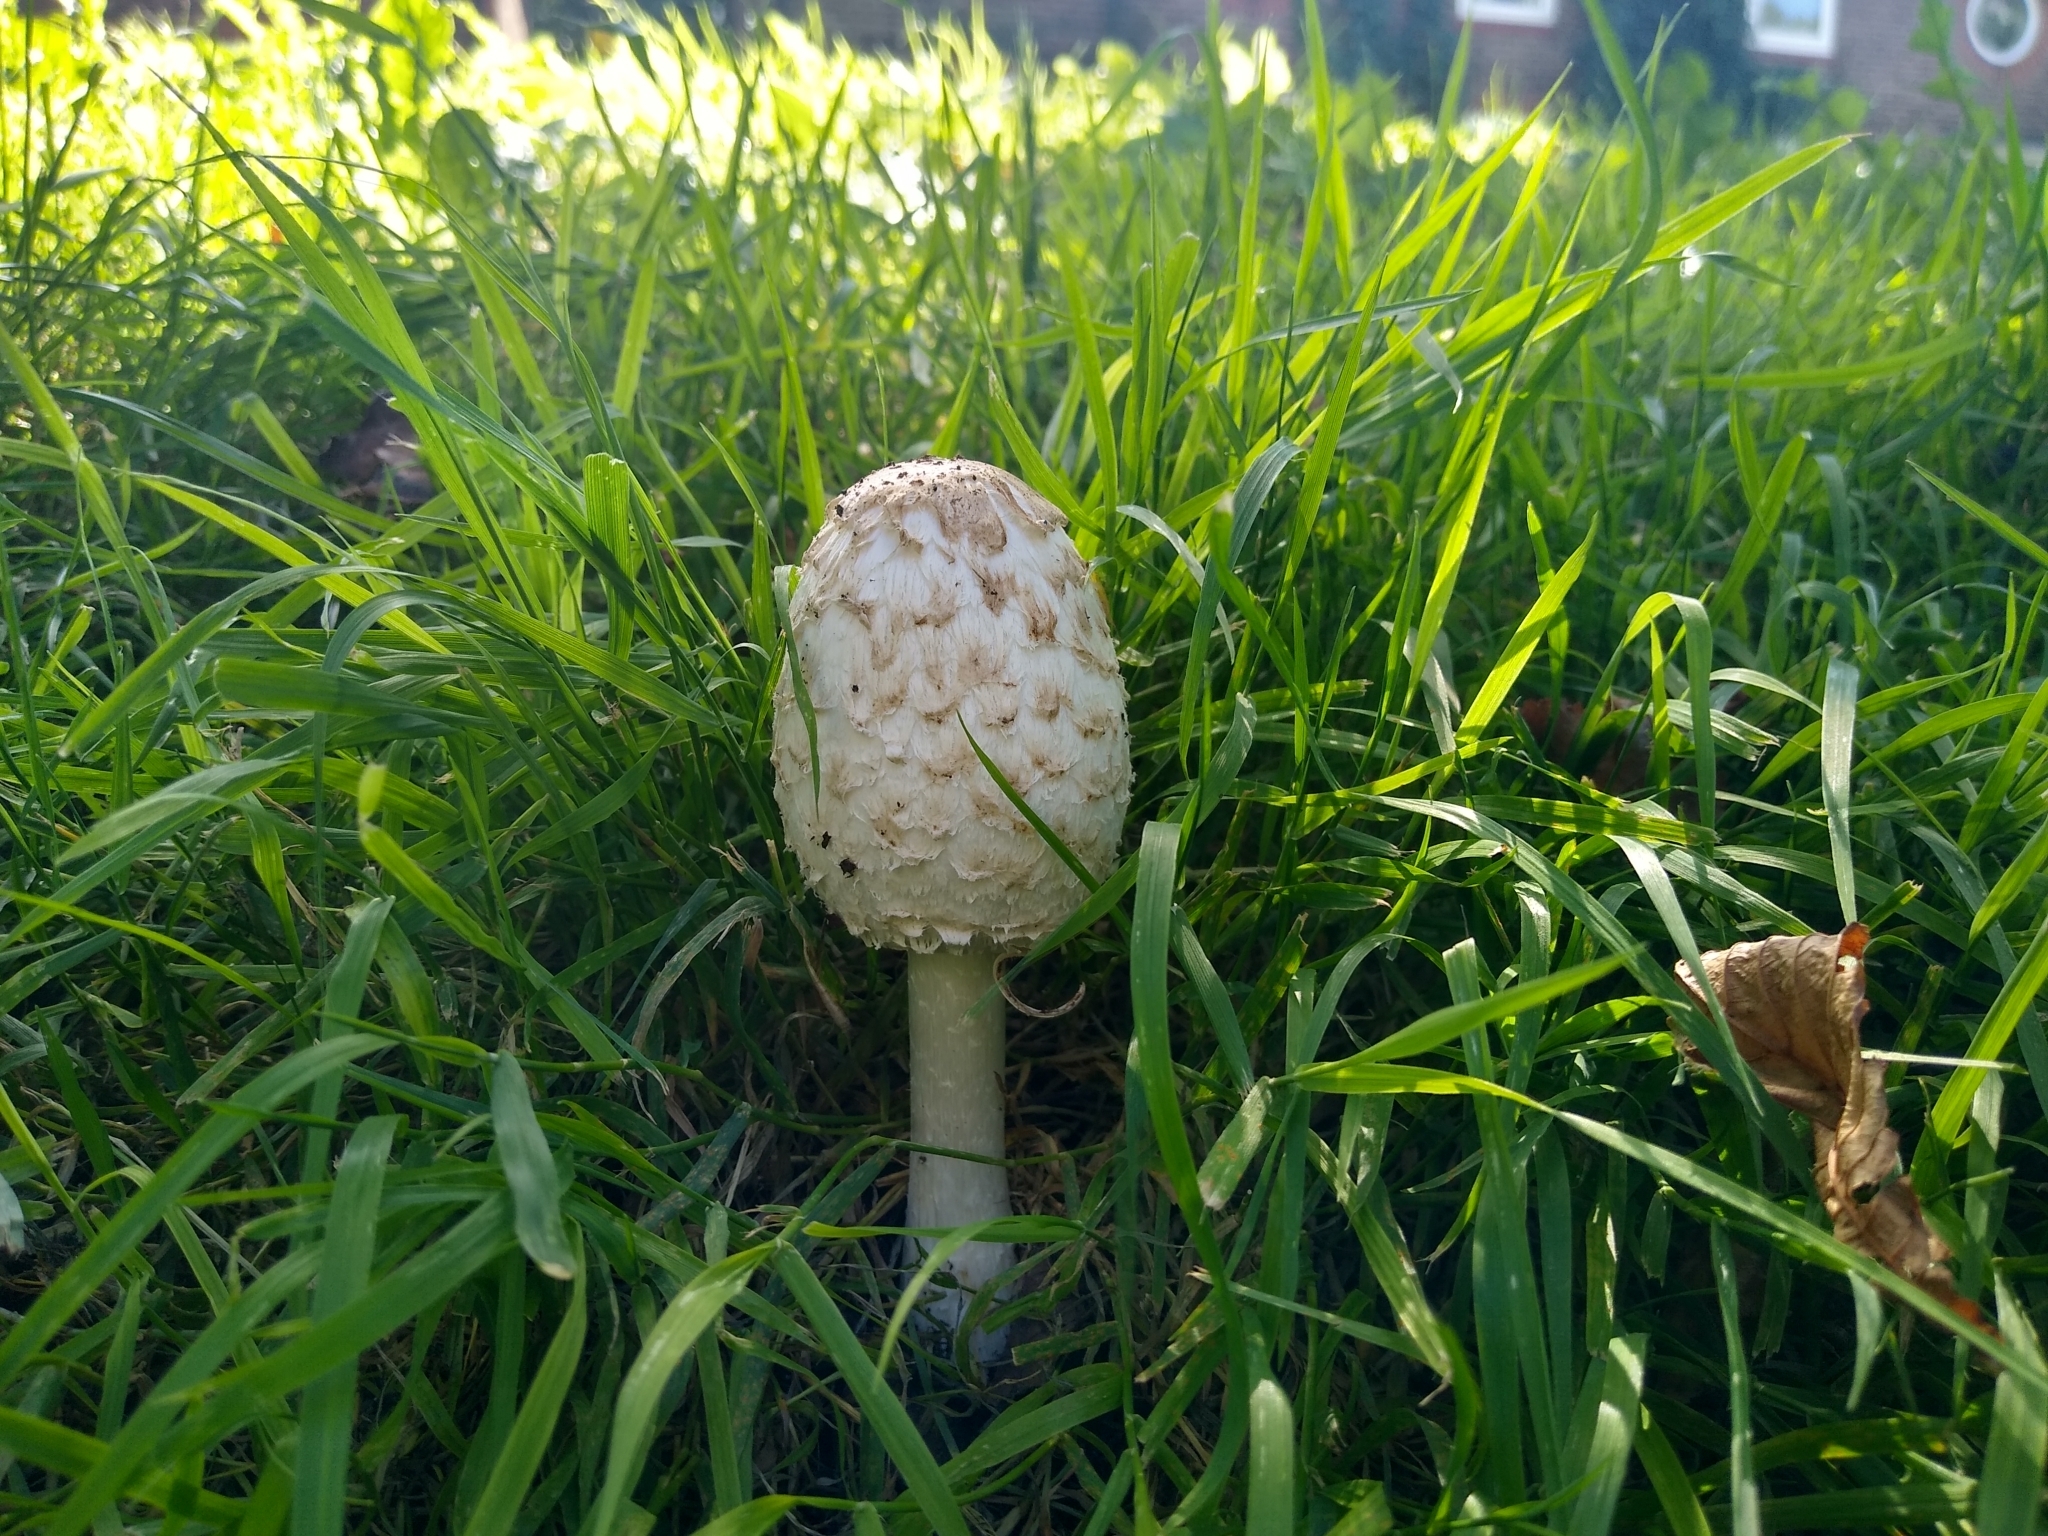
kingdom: Fungi
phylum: Basidiomycota
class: Agaricomycetes
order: Agaricales
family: Agaricaceae
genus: Coprinus
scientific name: Coprinus comatus
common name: Lawyer's wig
